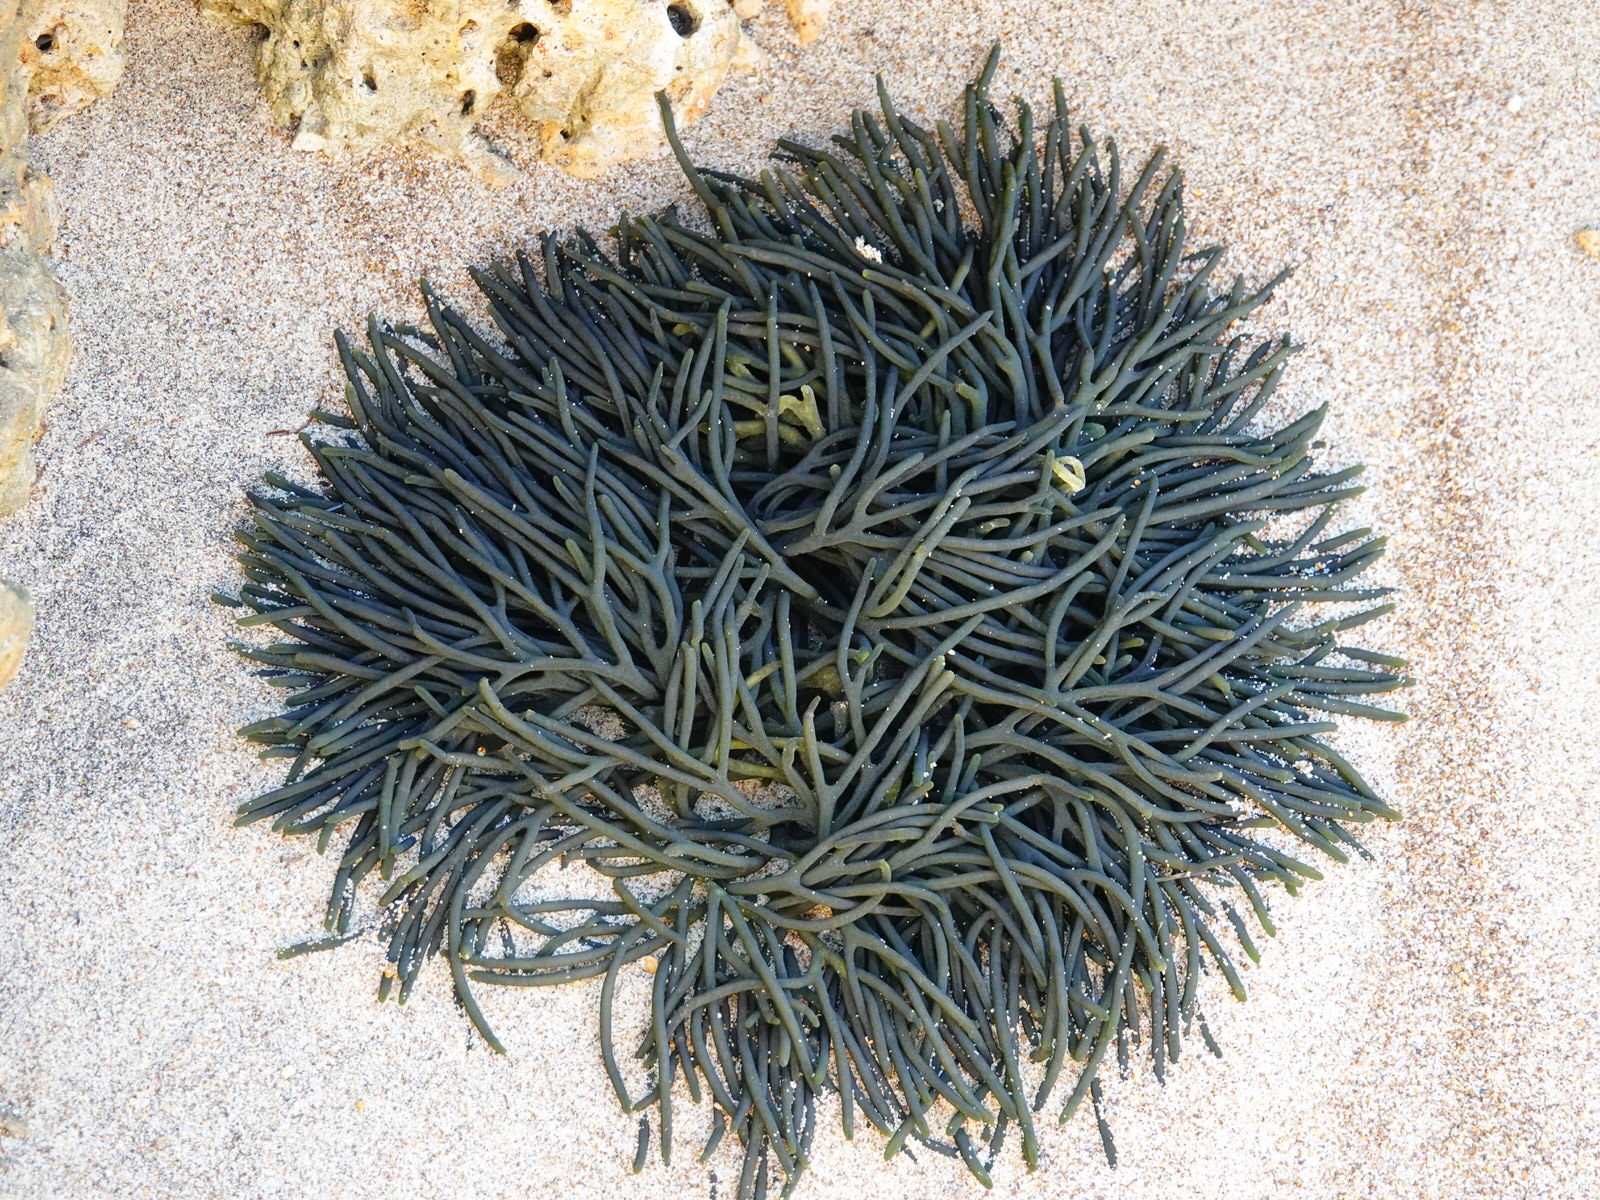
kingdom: Plantae
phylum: Chlorophyta
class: Ulvophyceae
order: Bryopsidales
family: Codiaceae
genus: Codium
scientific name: Codium fragile
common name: Dead man's fingers
